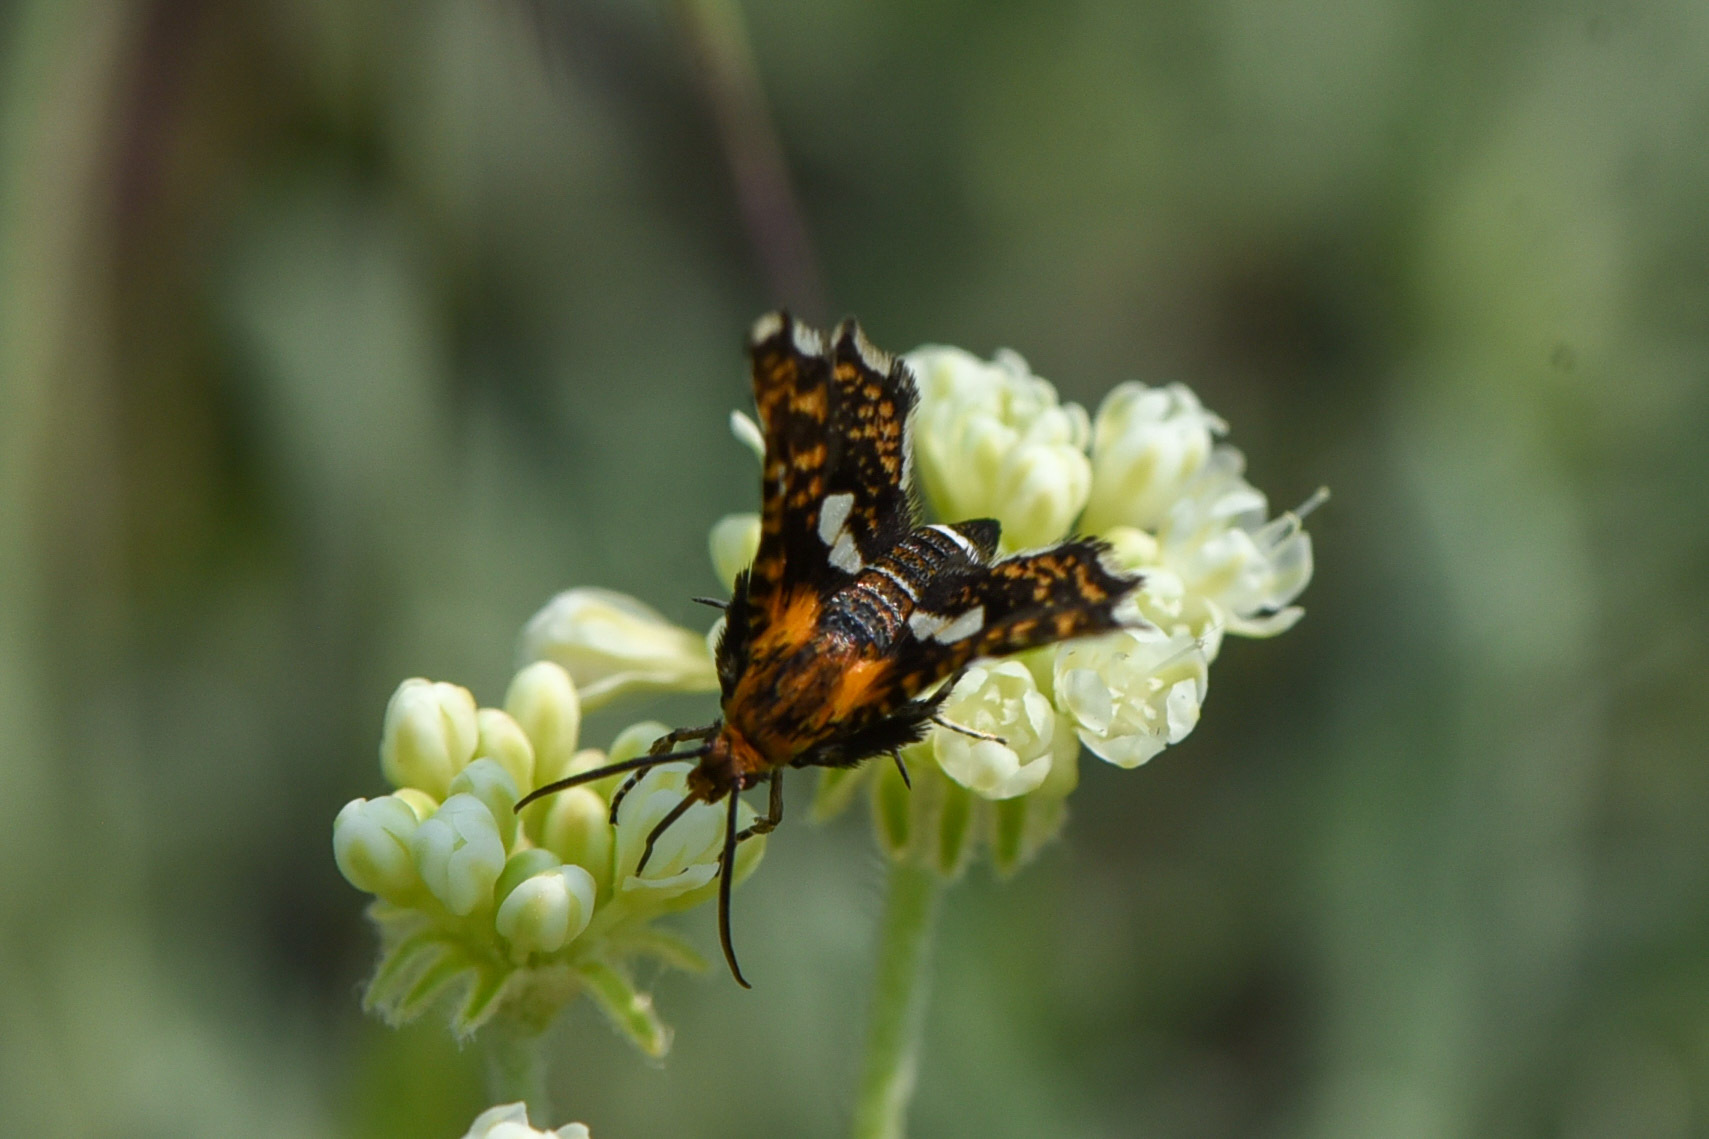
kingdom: Animalia
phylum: Arthropoda
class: Insecta
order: Lepidoptera
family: Thyrididae
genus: Thyris
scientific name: Thyris maculata
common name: Spotted thyris moth
